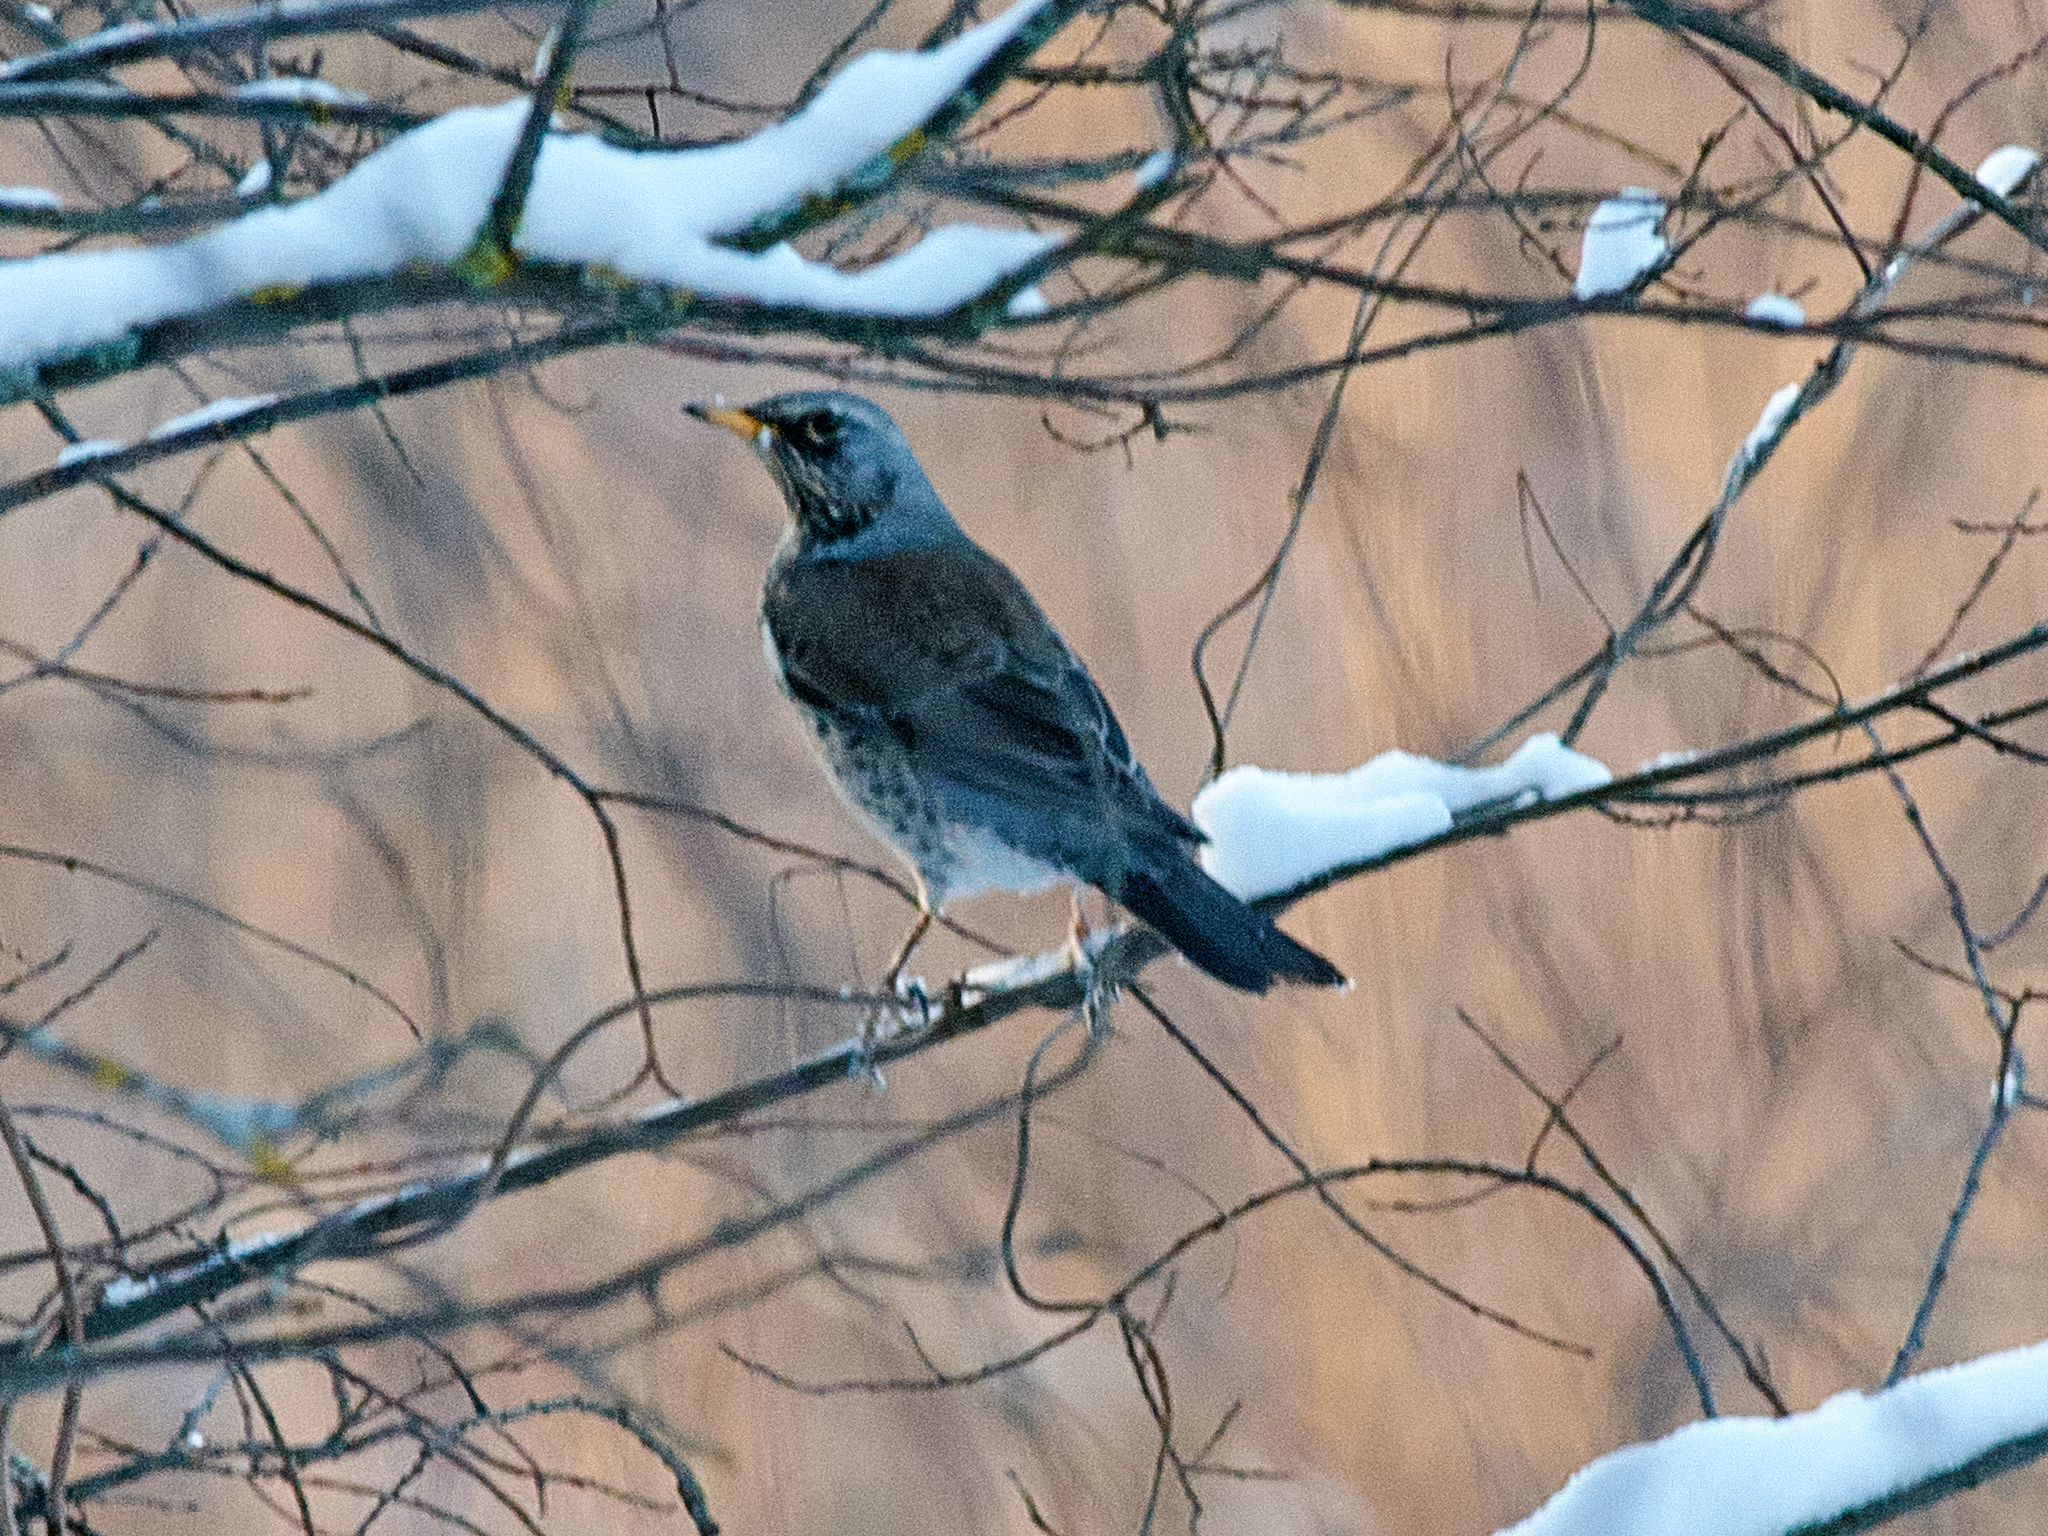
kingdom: Animalia
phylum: Chordata
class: Aves
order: Passeriformes
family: Turdidae
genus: Turdus
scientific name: Turdus pilaris
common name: Fieldfare
